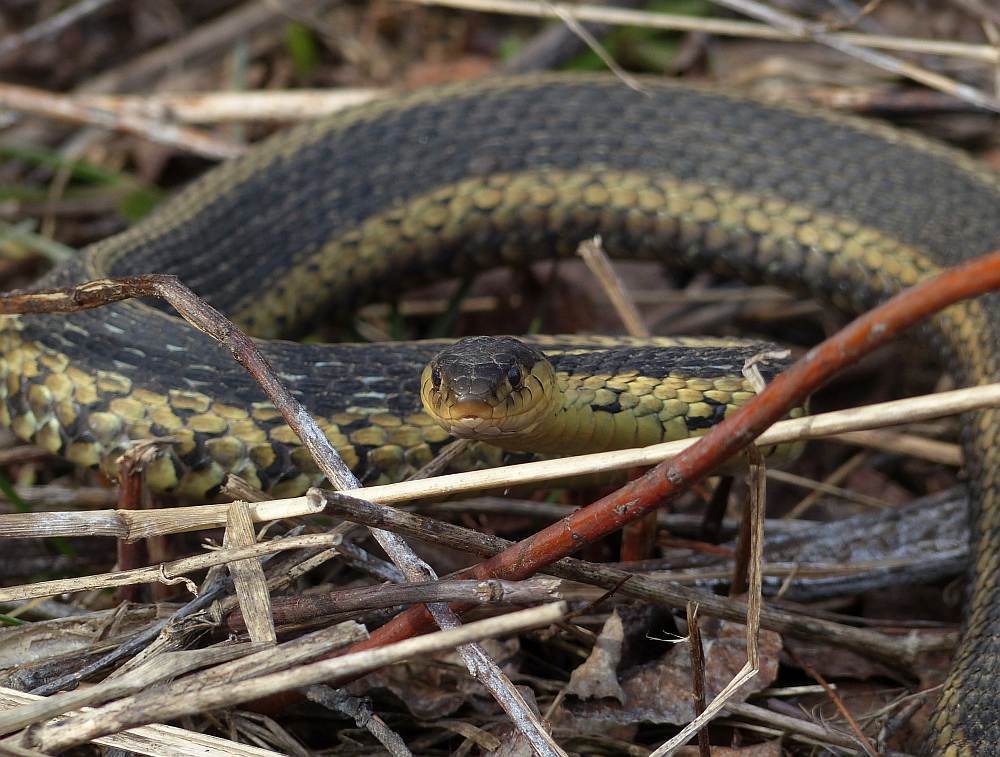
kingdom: Animalia
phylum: Chordata
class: Squamata
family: Colubridae
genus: Thamnophis
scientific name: Thamnophis sirtalis
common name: Common garter snake
